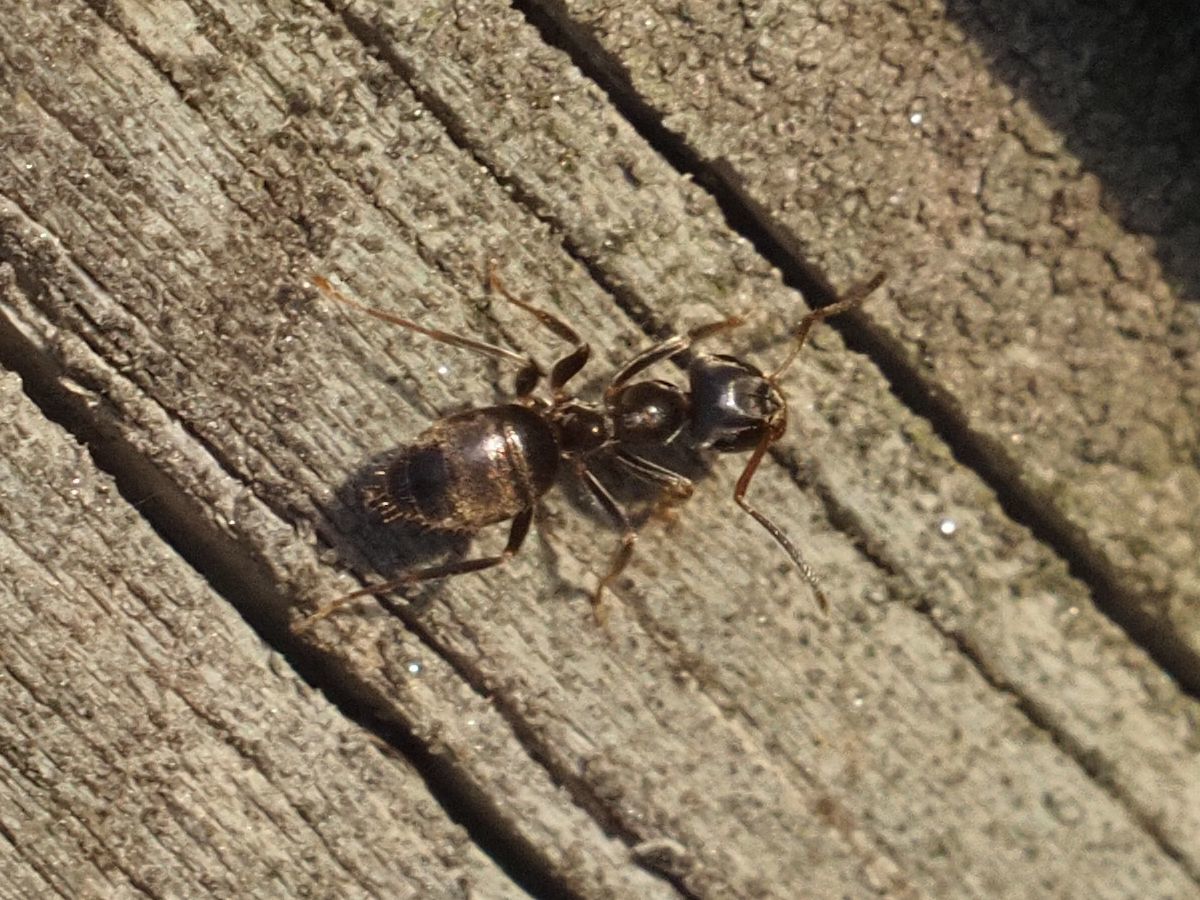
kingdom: Animalia
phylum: Arthropoda
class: Insecta
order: Hymenoptera
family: Formicidae
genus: Lasius
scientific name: Lasius niger
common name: Small black ant
